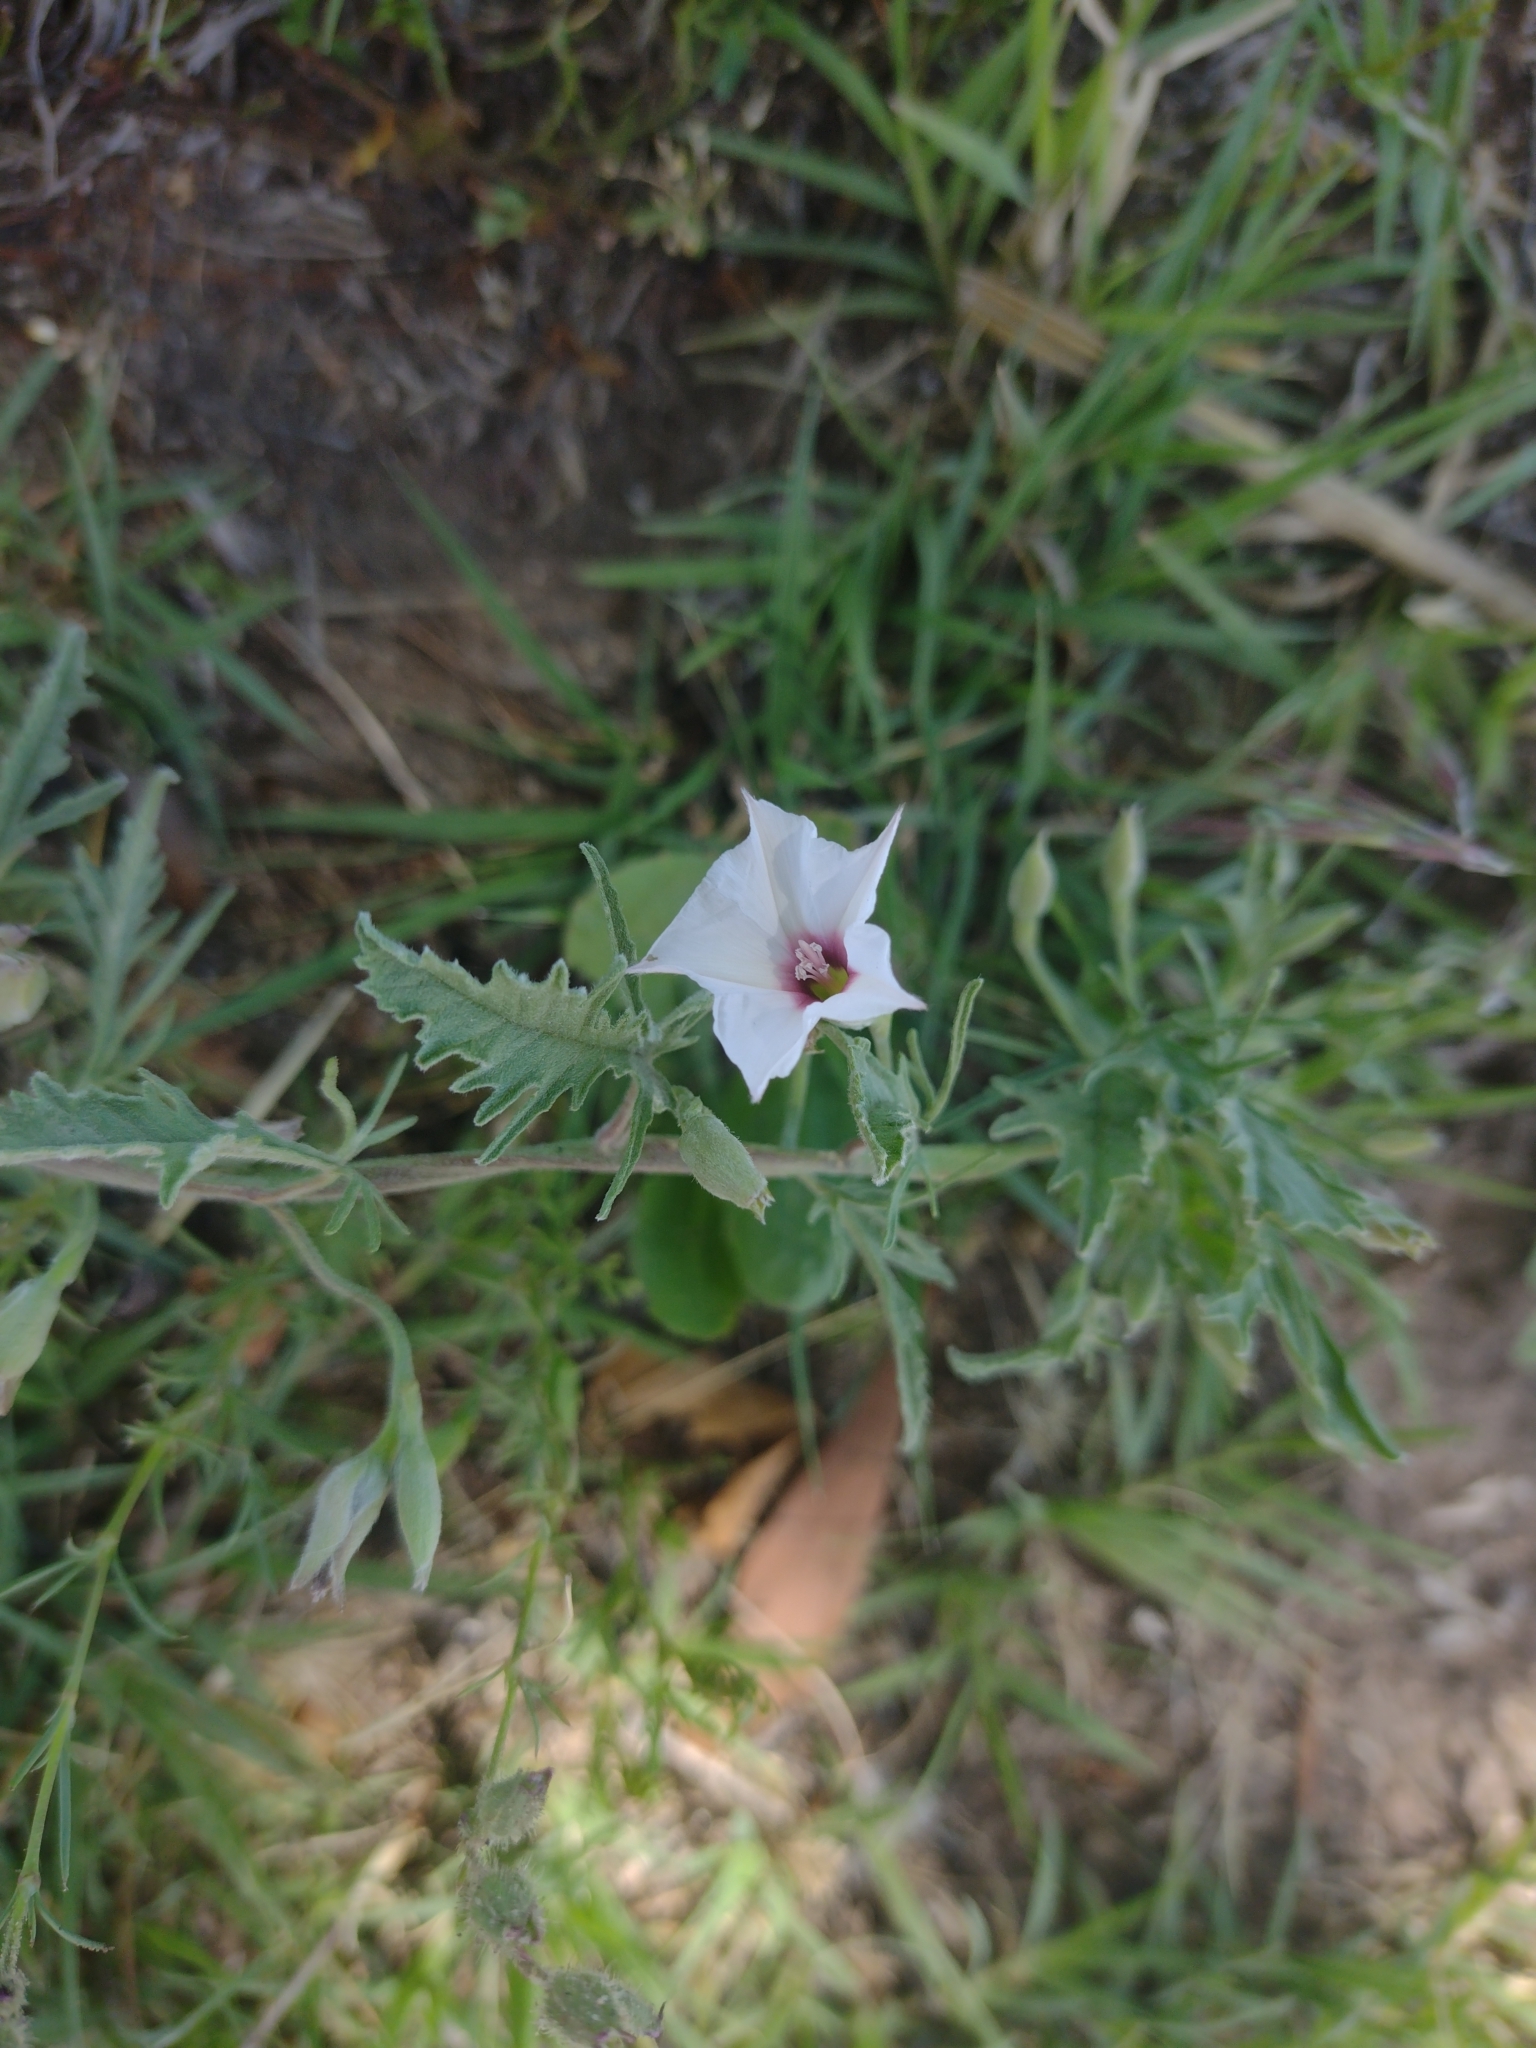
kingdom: Plantae
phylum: Tracheophyta
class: Magnoliopsida
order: Solanales
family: Convolvulaceae
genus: Convolvulus
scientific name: Convolvulus bonariensis
